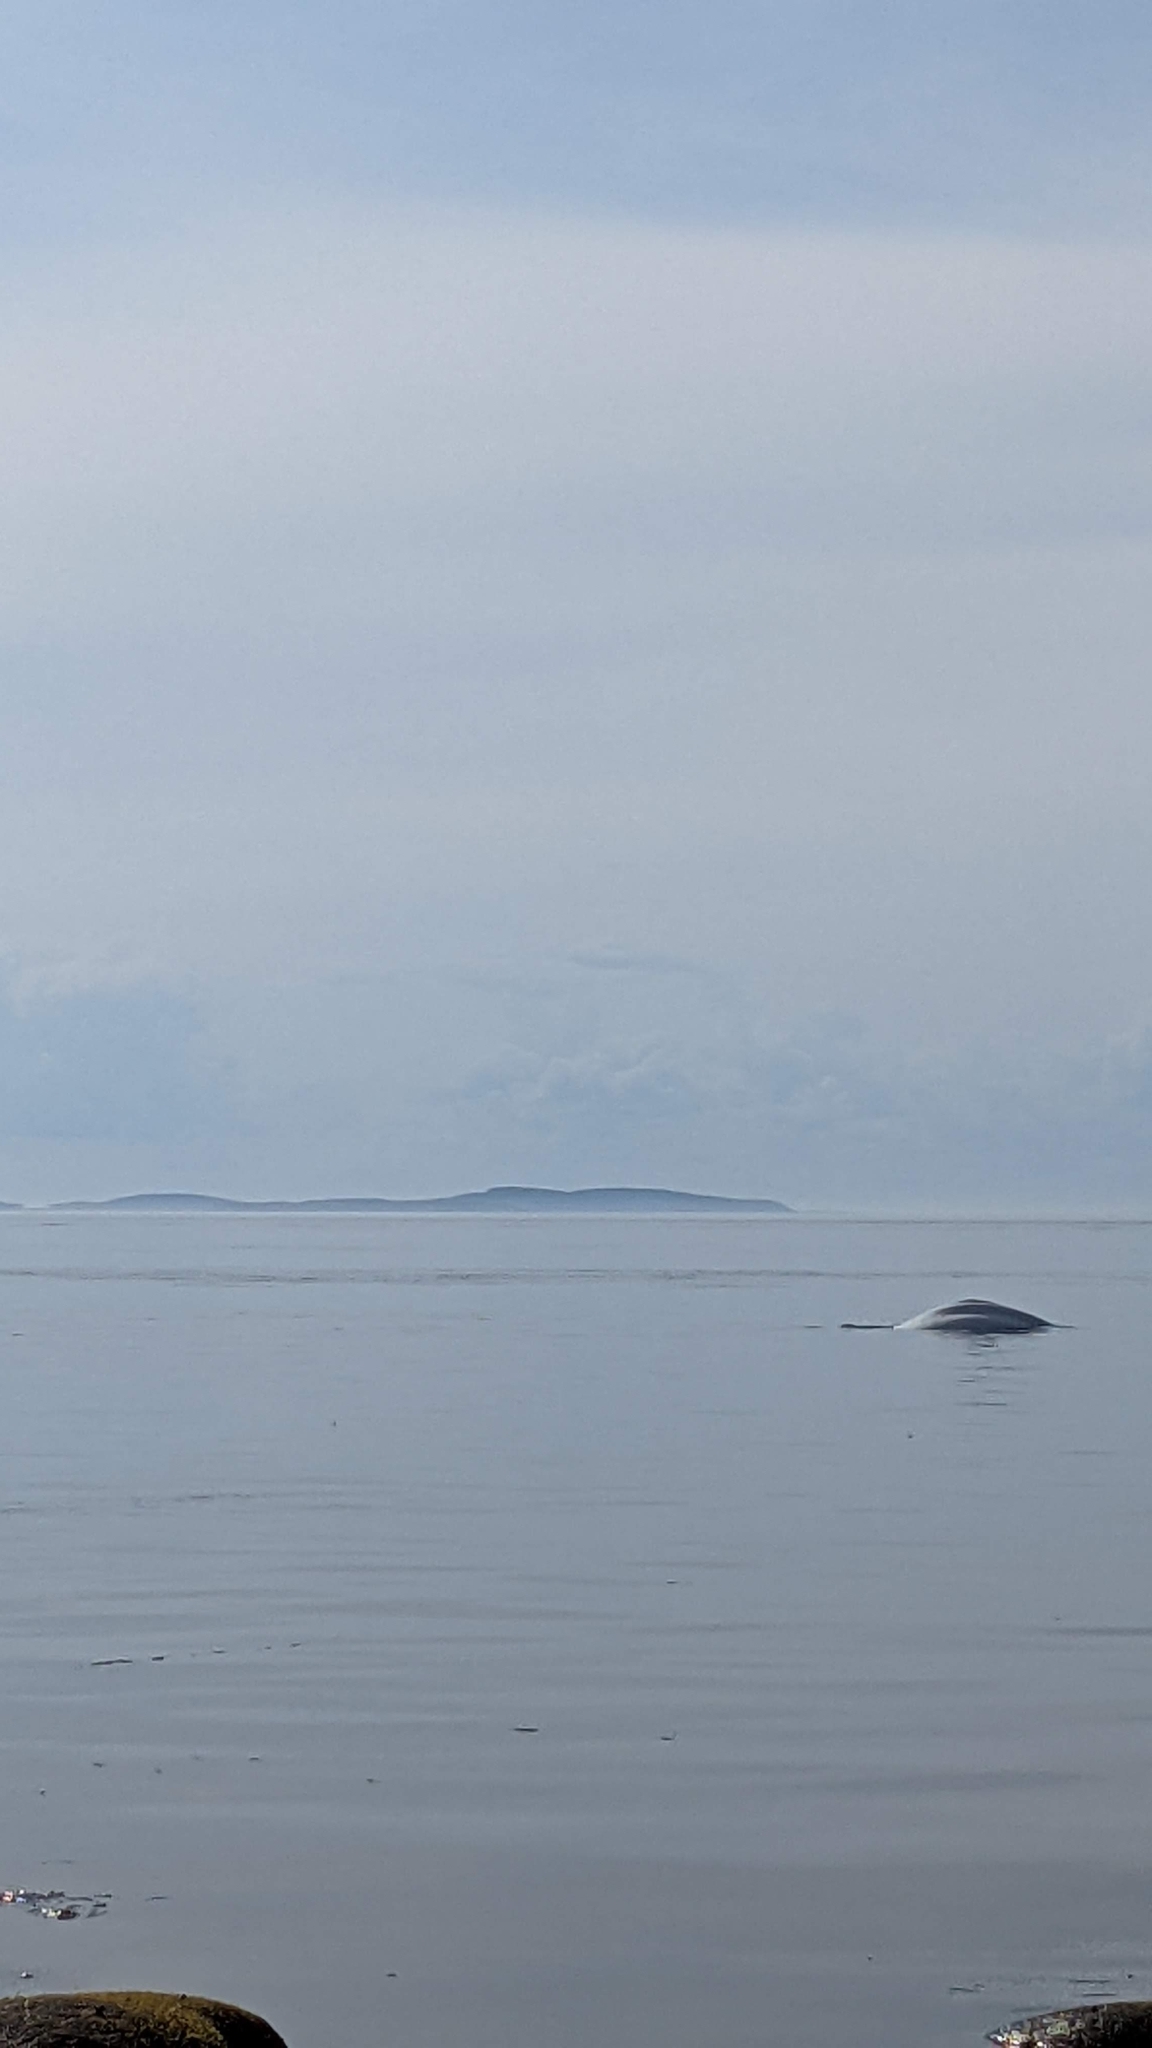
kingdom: Animalia
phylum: Chordata
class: Mammalia
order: Cetacea
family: Monodontidae
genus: Delphinapterus
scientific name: Delphinapterus leucas
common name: Beluga
